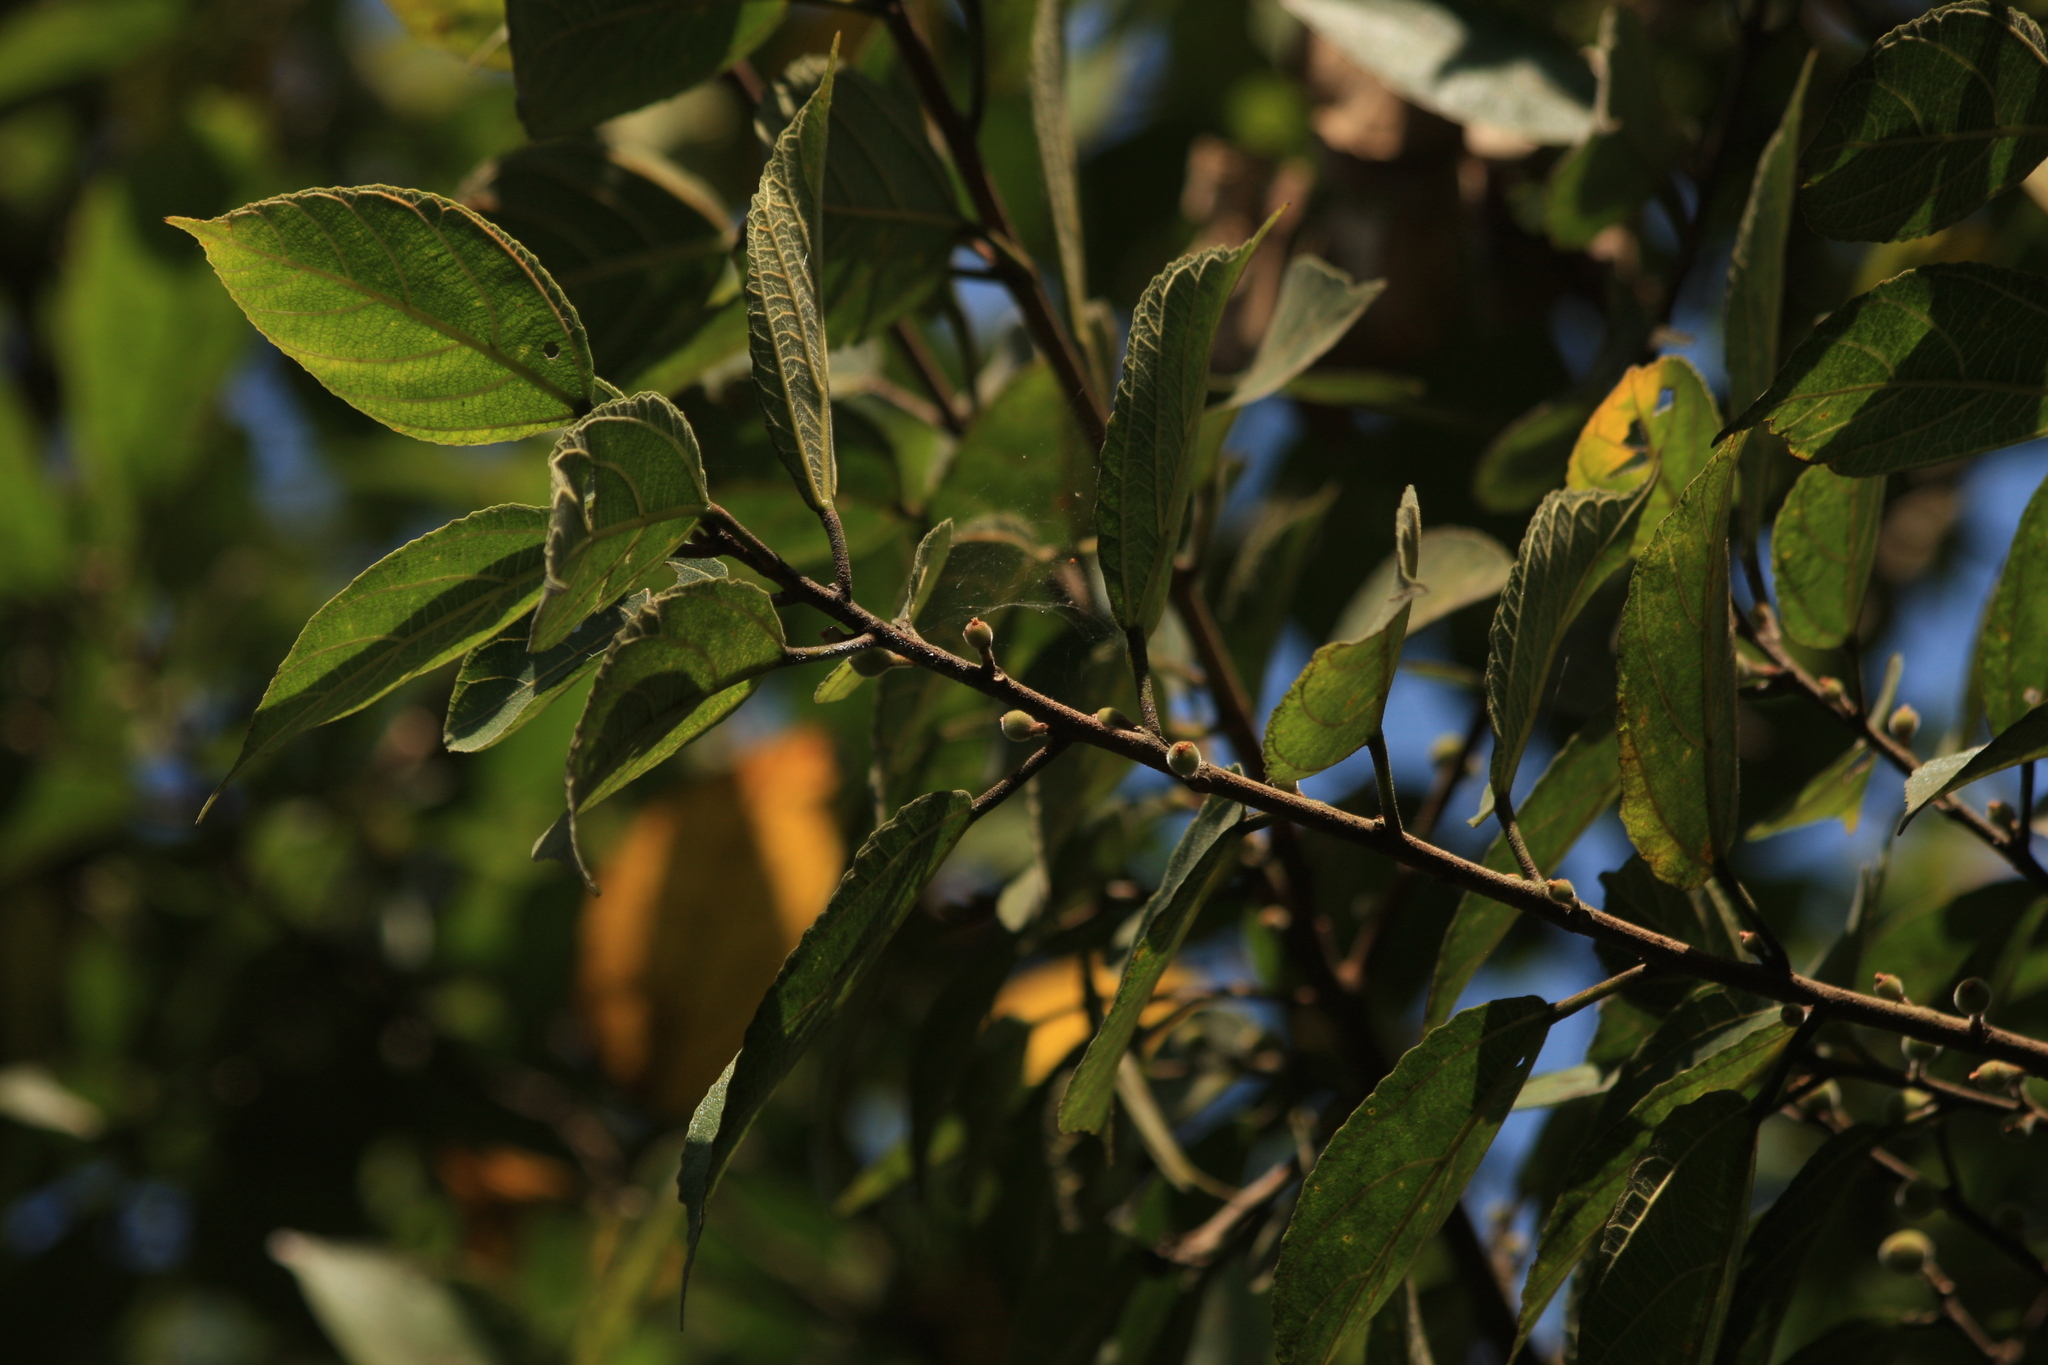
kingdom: Plantae
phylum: Tracheophyta
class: Magnoliopsida
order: Rosales
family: Moraceae
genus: Ficus
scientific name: Ficus exasperata
